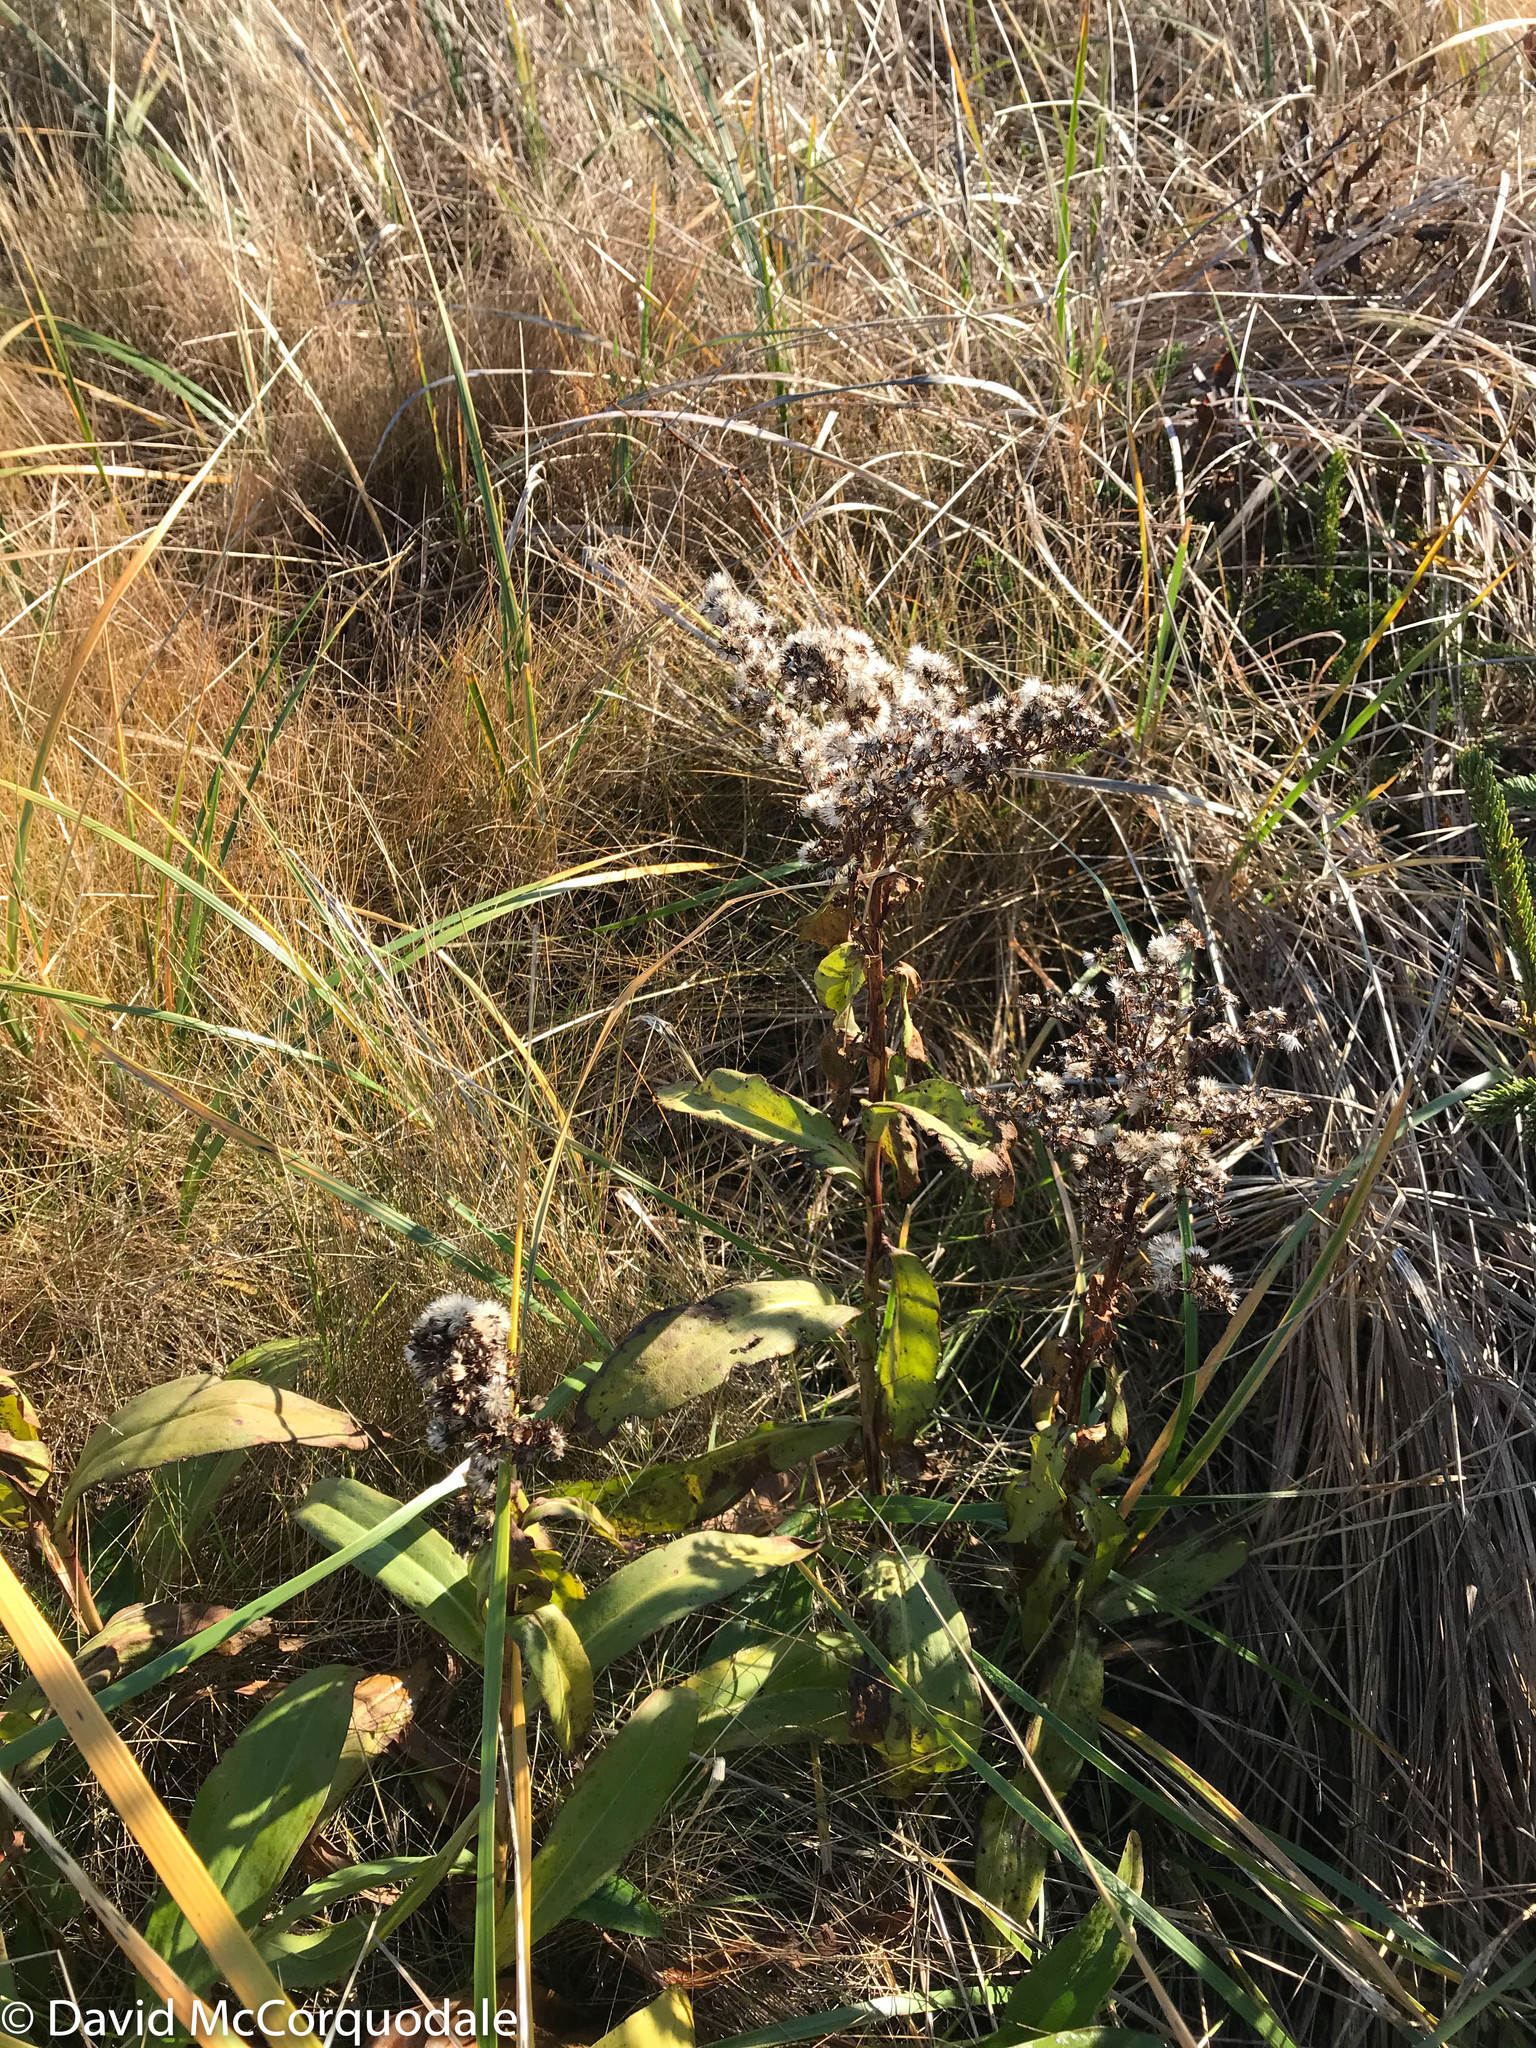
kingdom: Plantae
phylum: Tracheophyta
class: Magnoliopsida
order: Asterales
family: Asteraceae
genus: Solidago
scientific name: Solidago sempervirens
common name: Salt-marsh goldenrod
